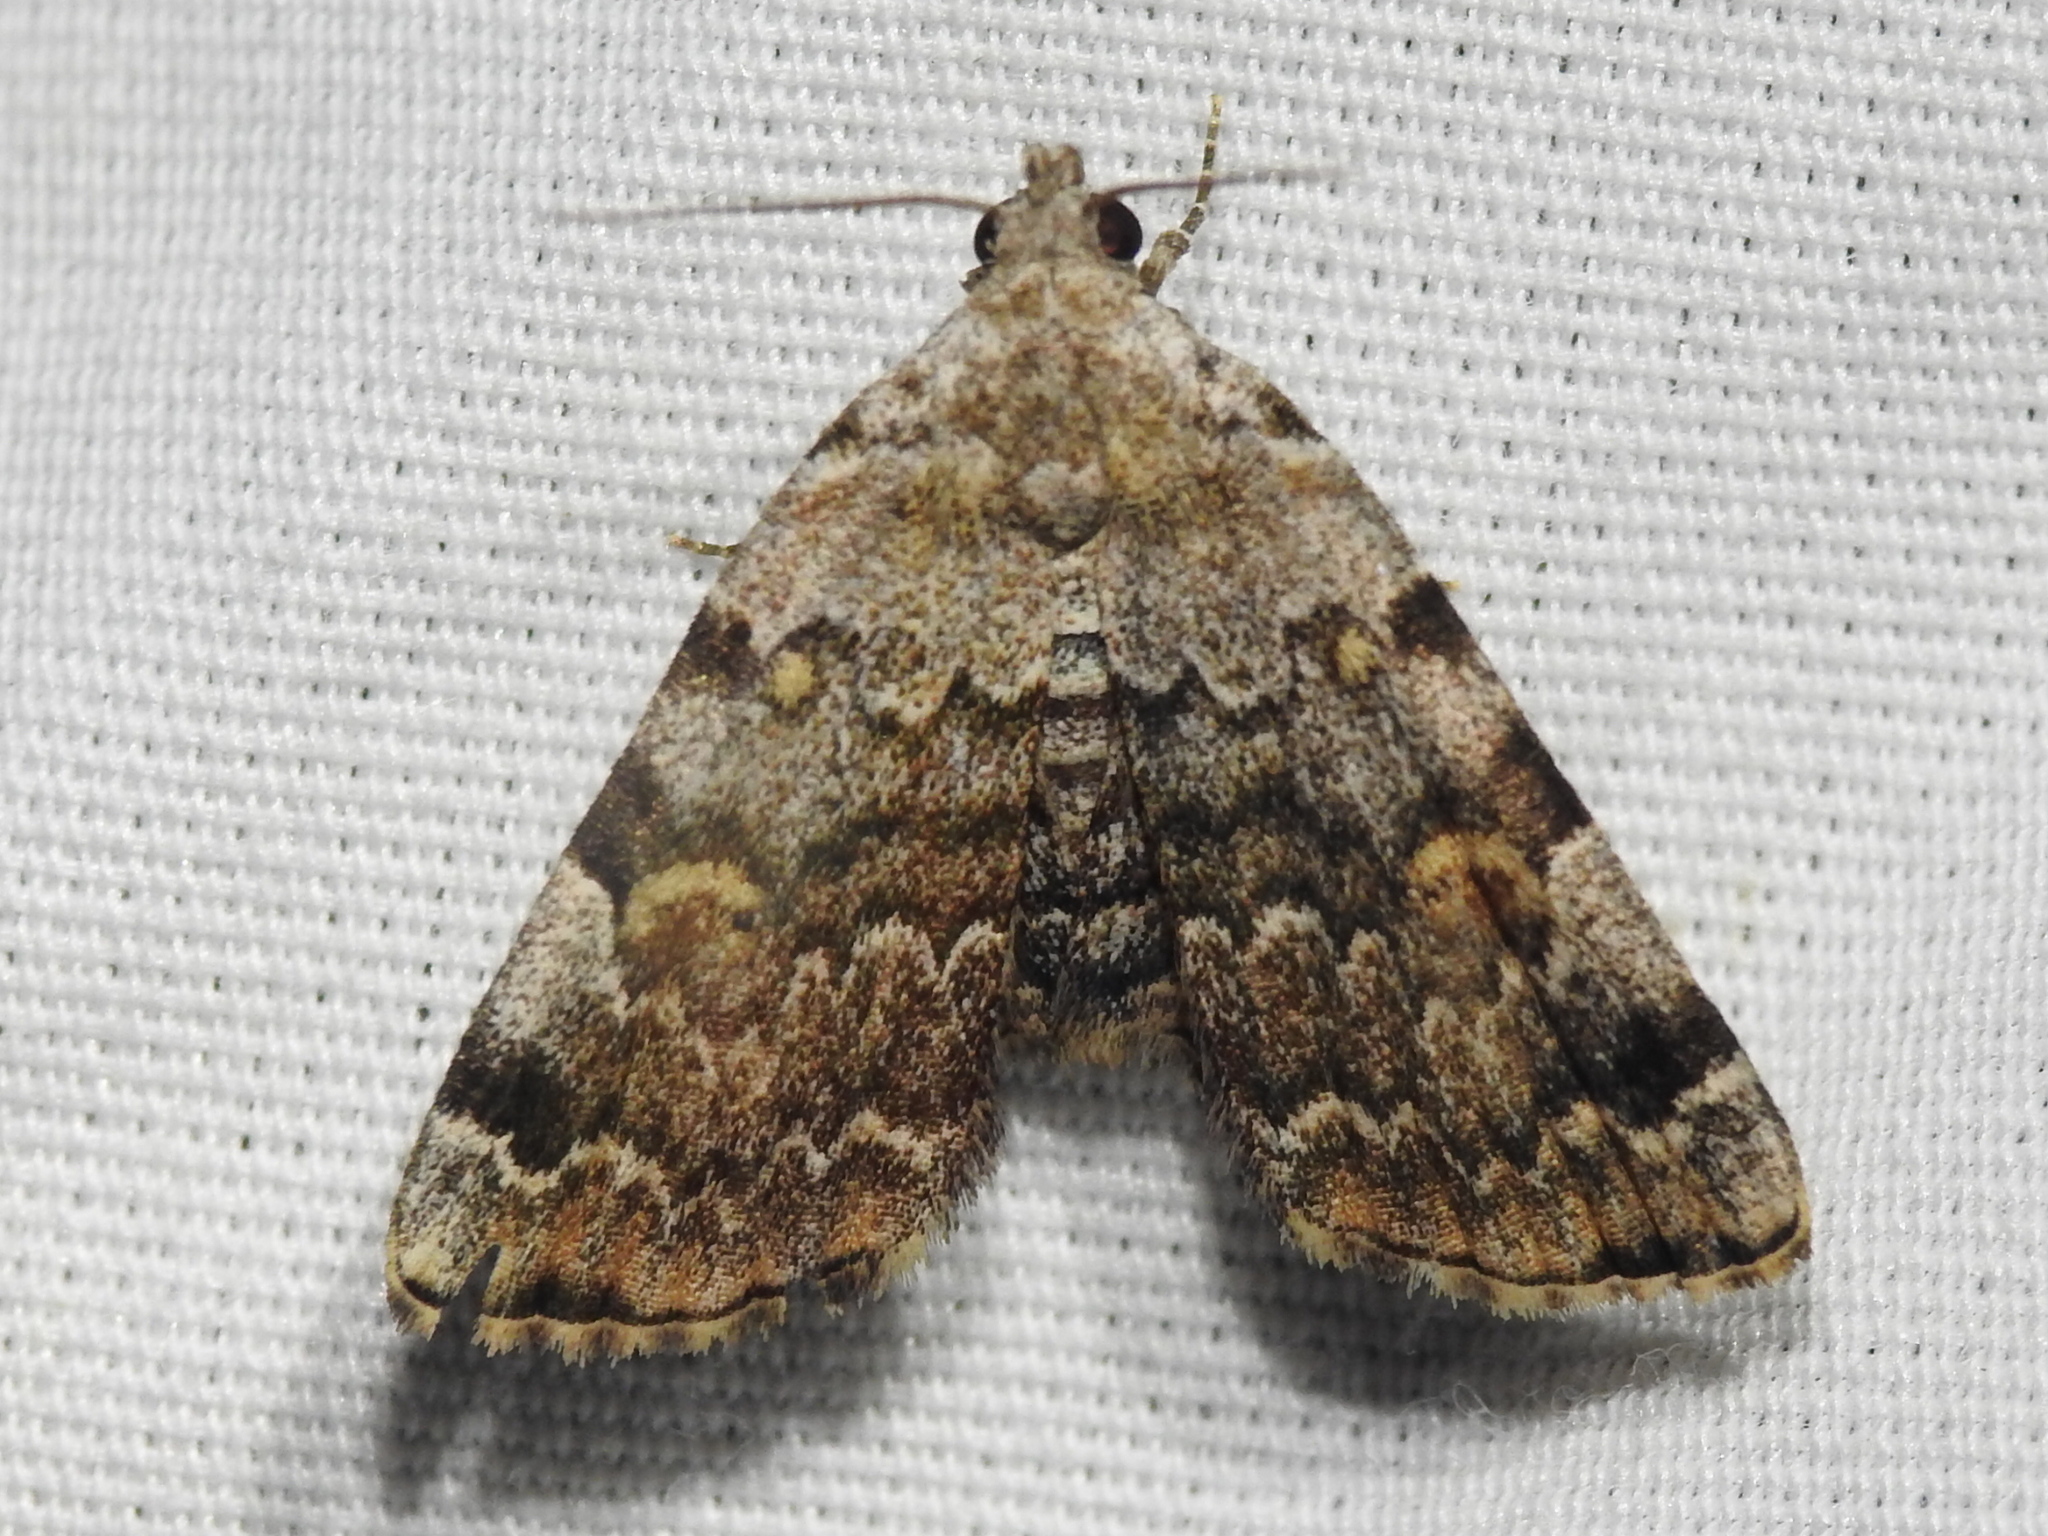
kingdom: Animalia
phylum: Arthropoda
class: Insecta
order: Lepidoptera
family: Erebidae
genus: Idia
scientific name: Idia americalis
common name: American idia moth
